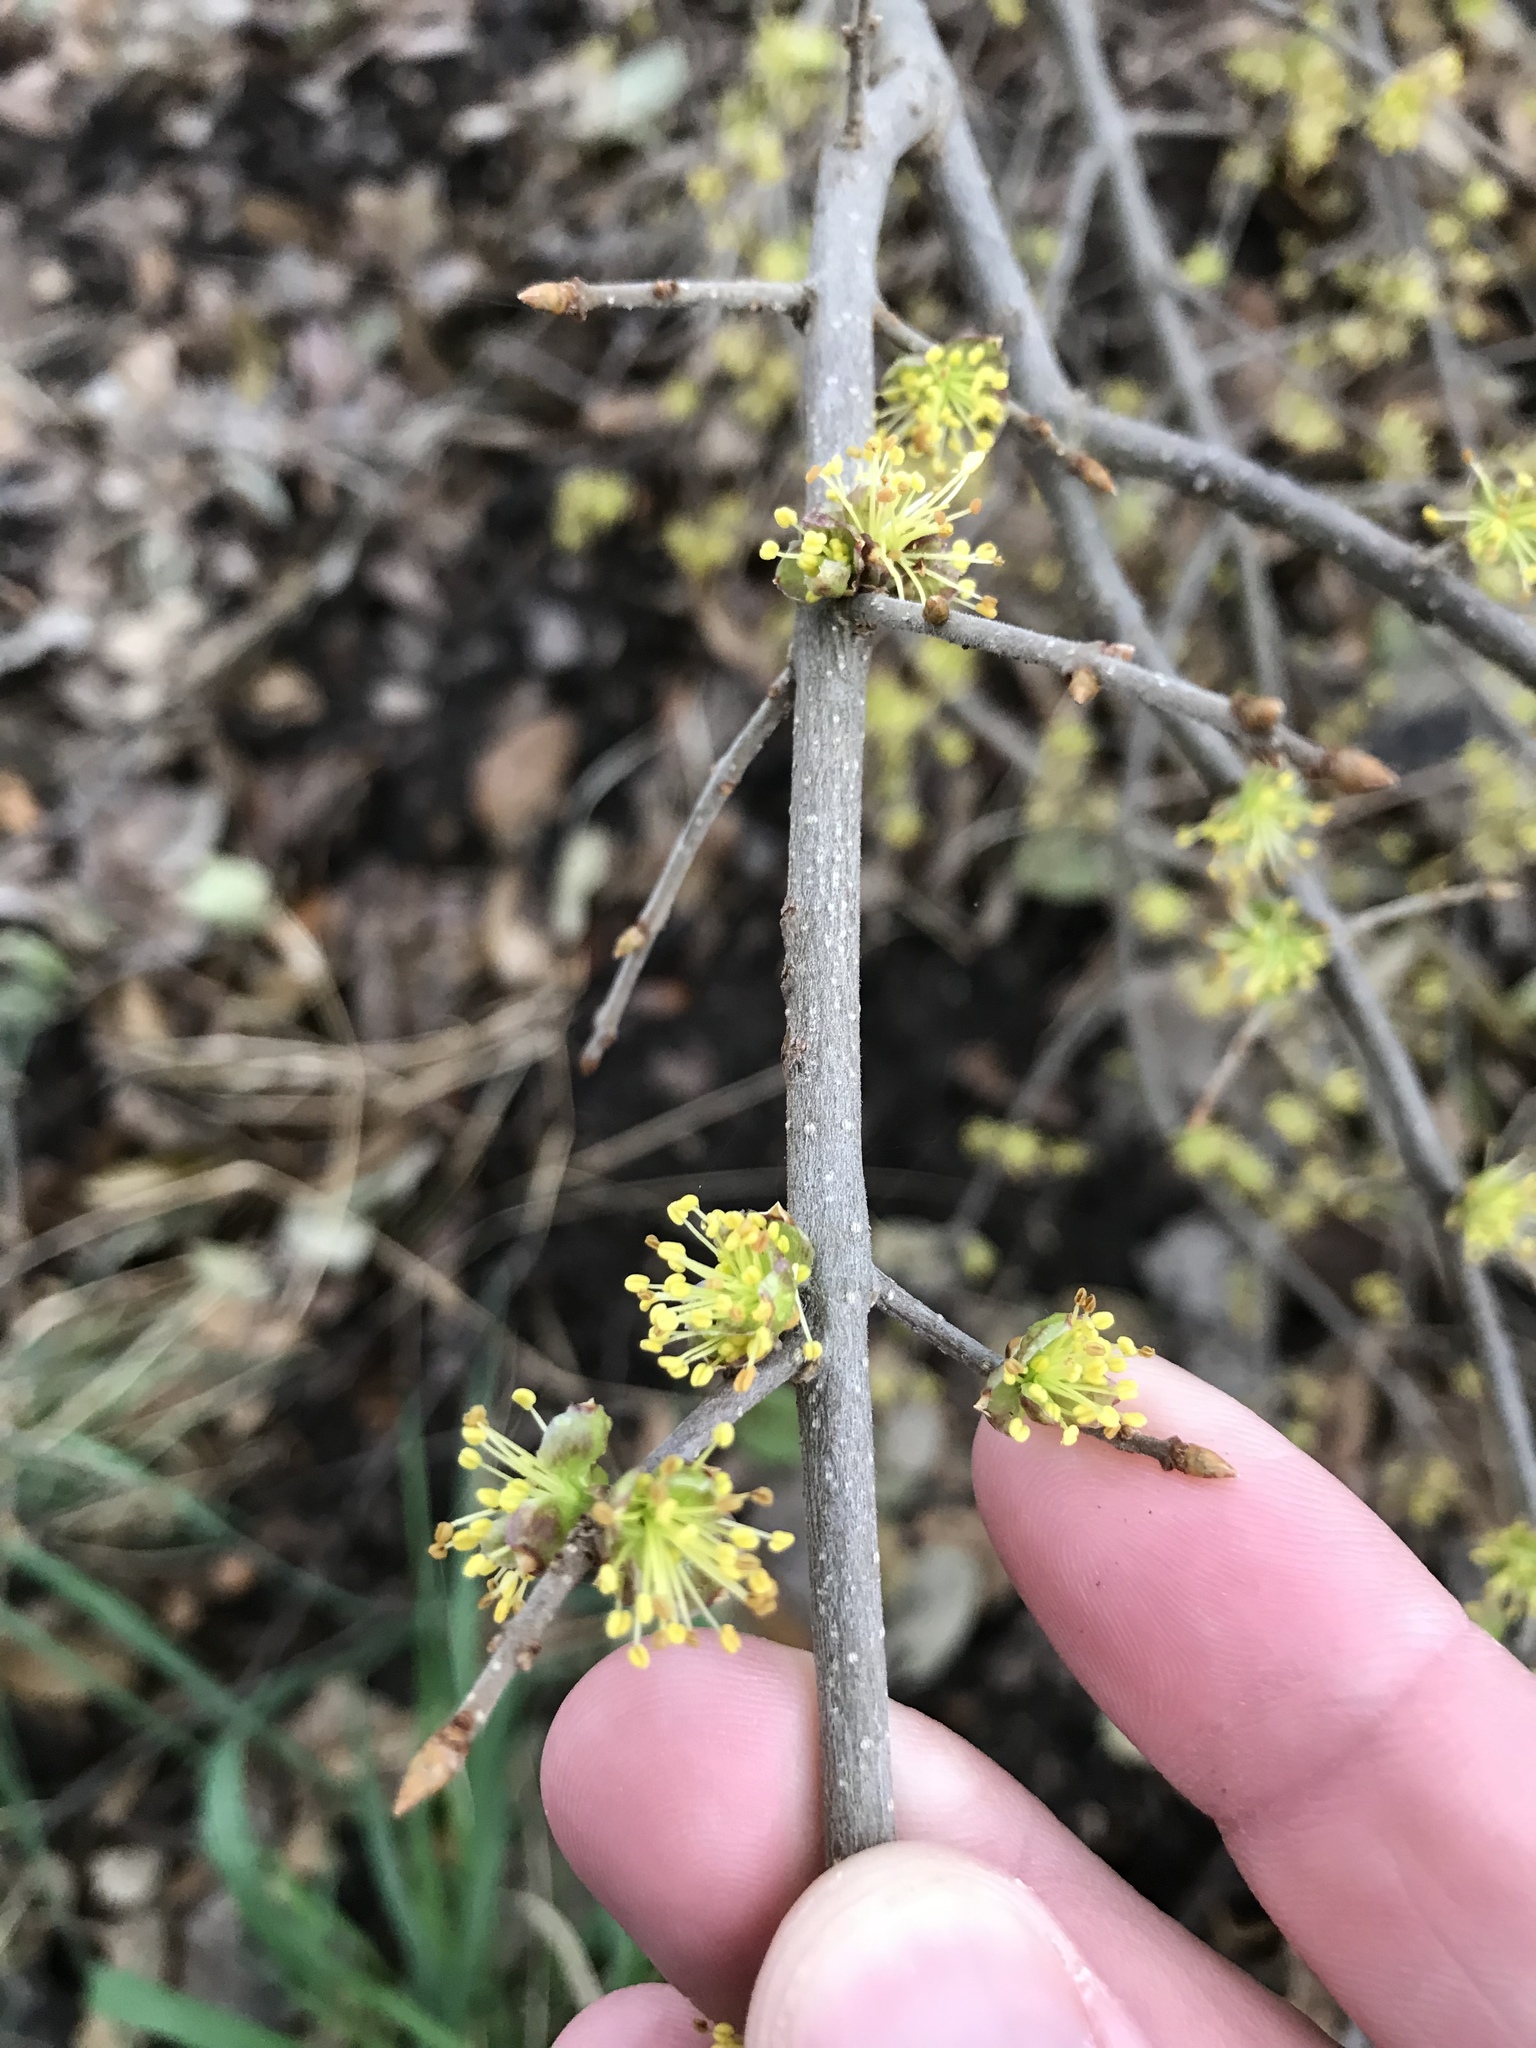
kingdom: Plantae
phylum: Tracheophyta
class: Magnoliopsida
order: Lamiales
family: Oleaceae
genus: Forestiera
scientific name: Forestiera pubescens
